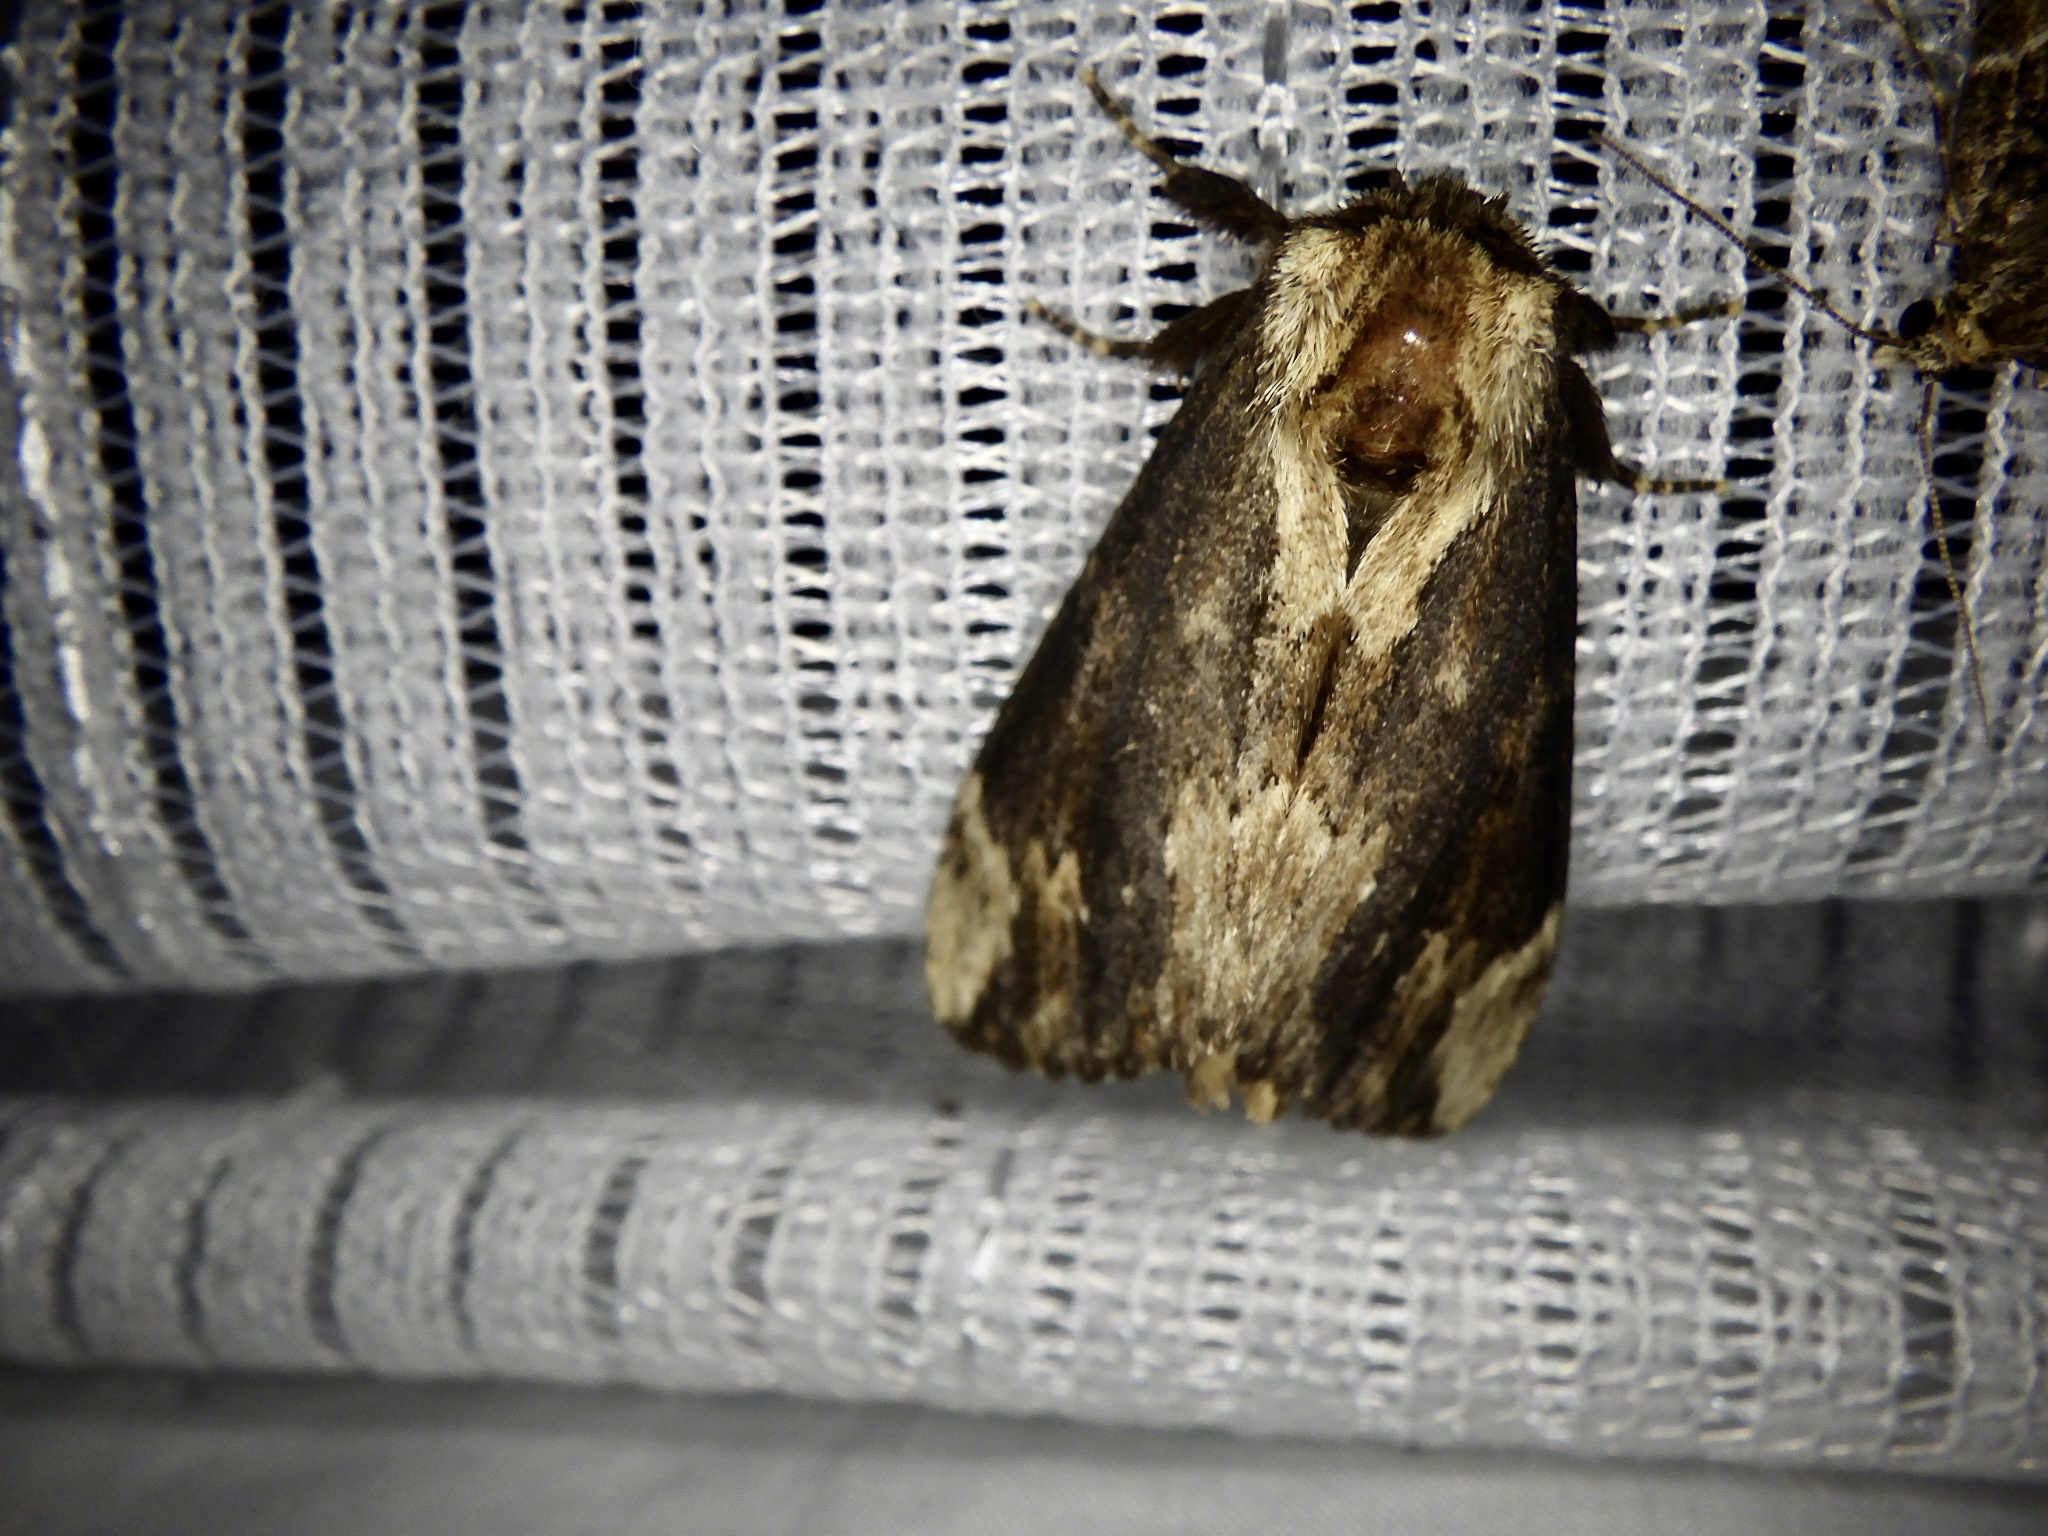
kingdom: Animalia
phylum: Arthropoda
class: Insecta
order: Lepidoptera
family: Notodontidae
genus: Hiradonta
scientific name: Hiradonta takaonis
